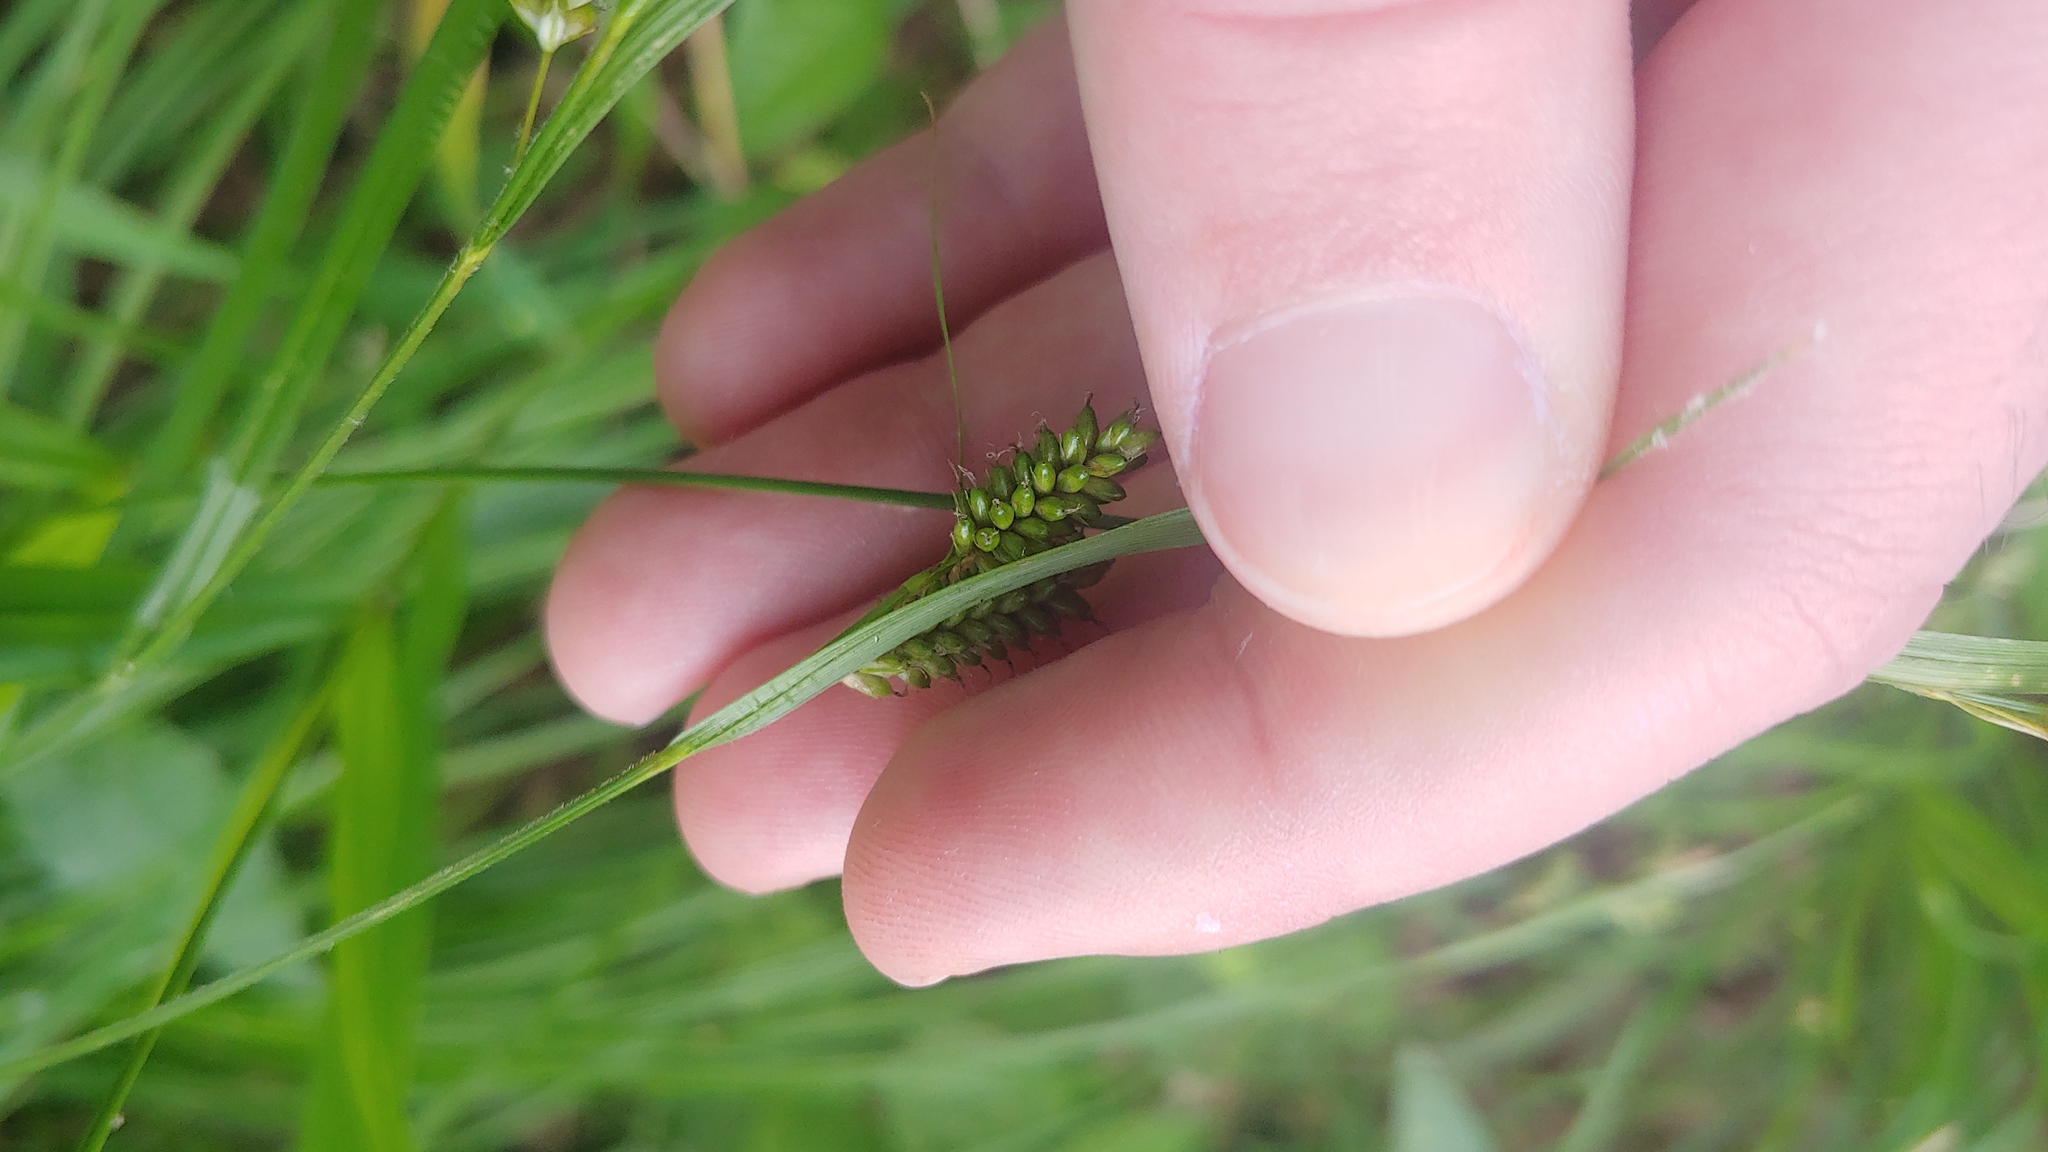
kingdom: Plantae
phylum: Tracheophyta
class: Liliopsida
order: Poales
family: Cyperaceae
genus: Carex
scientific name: Carex pallescens
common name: Pale sedge
